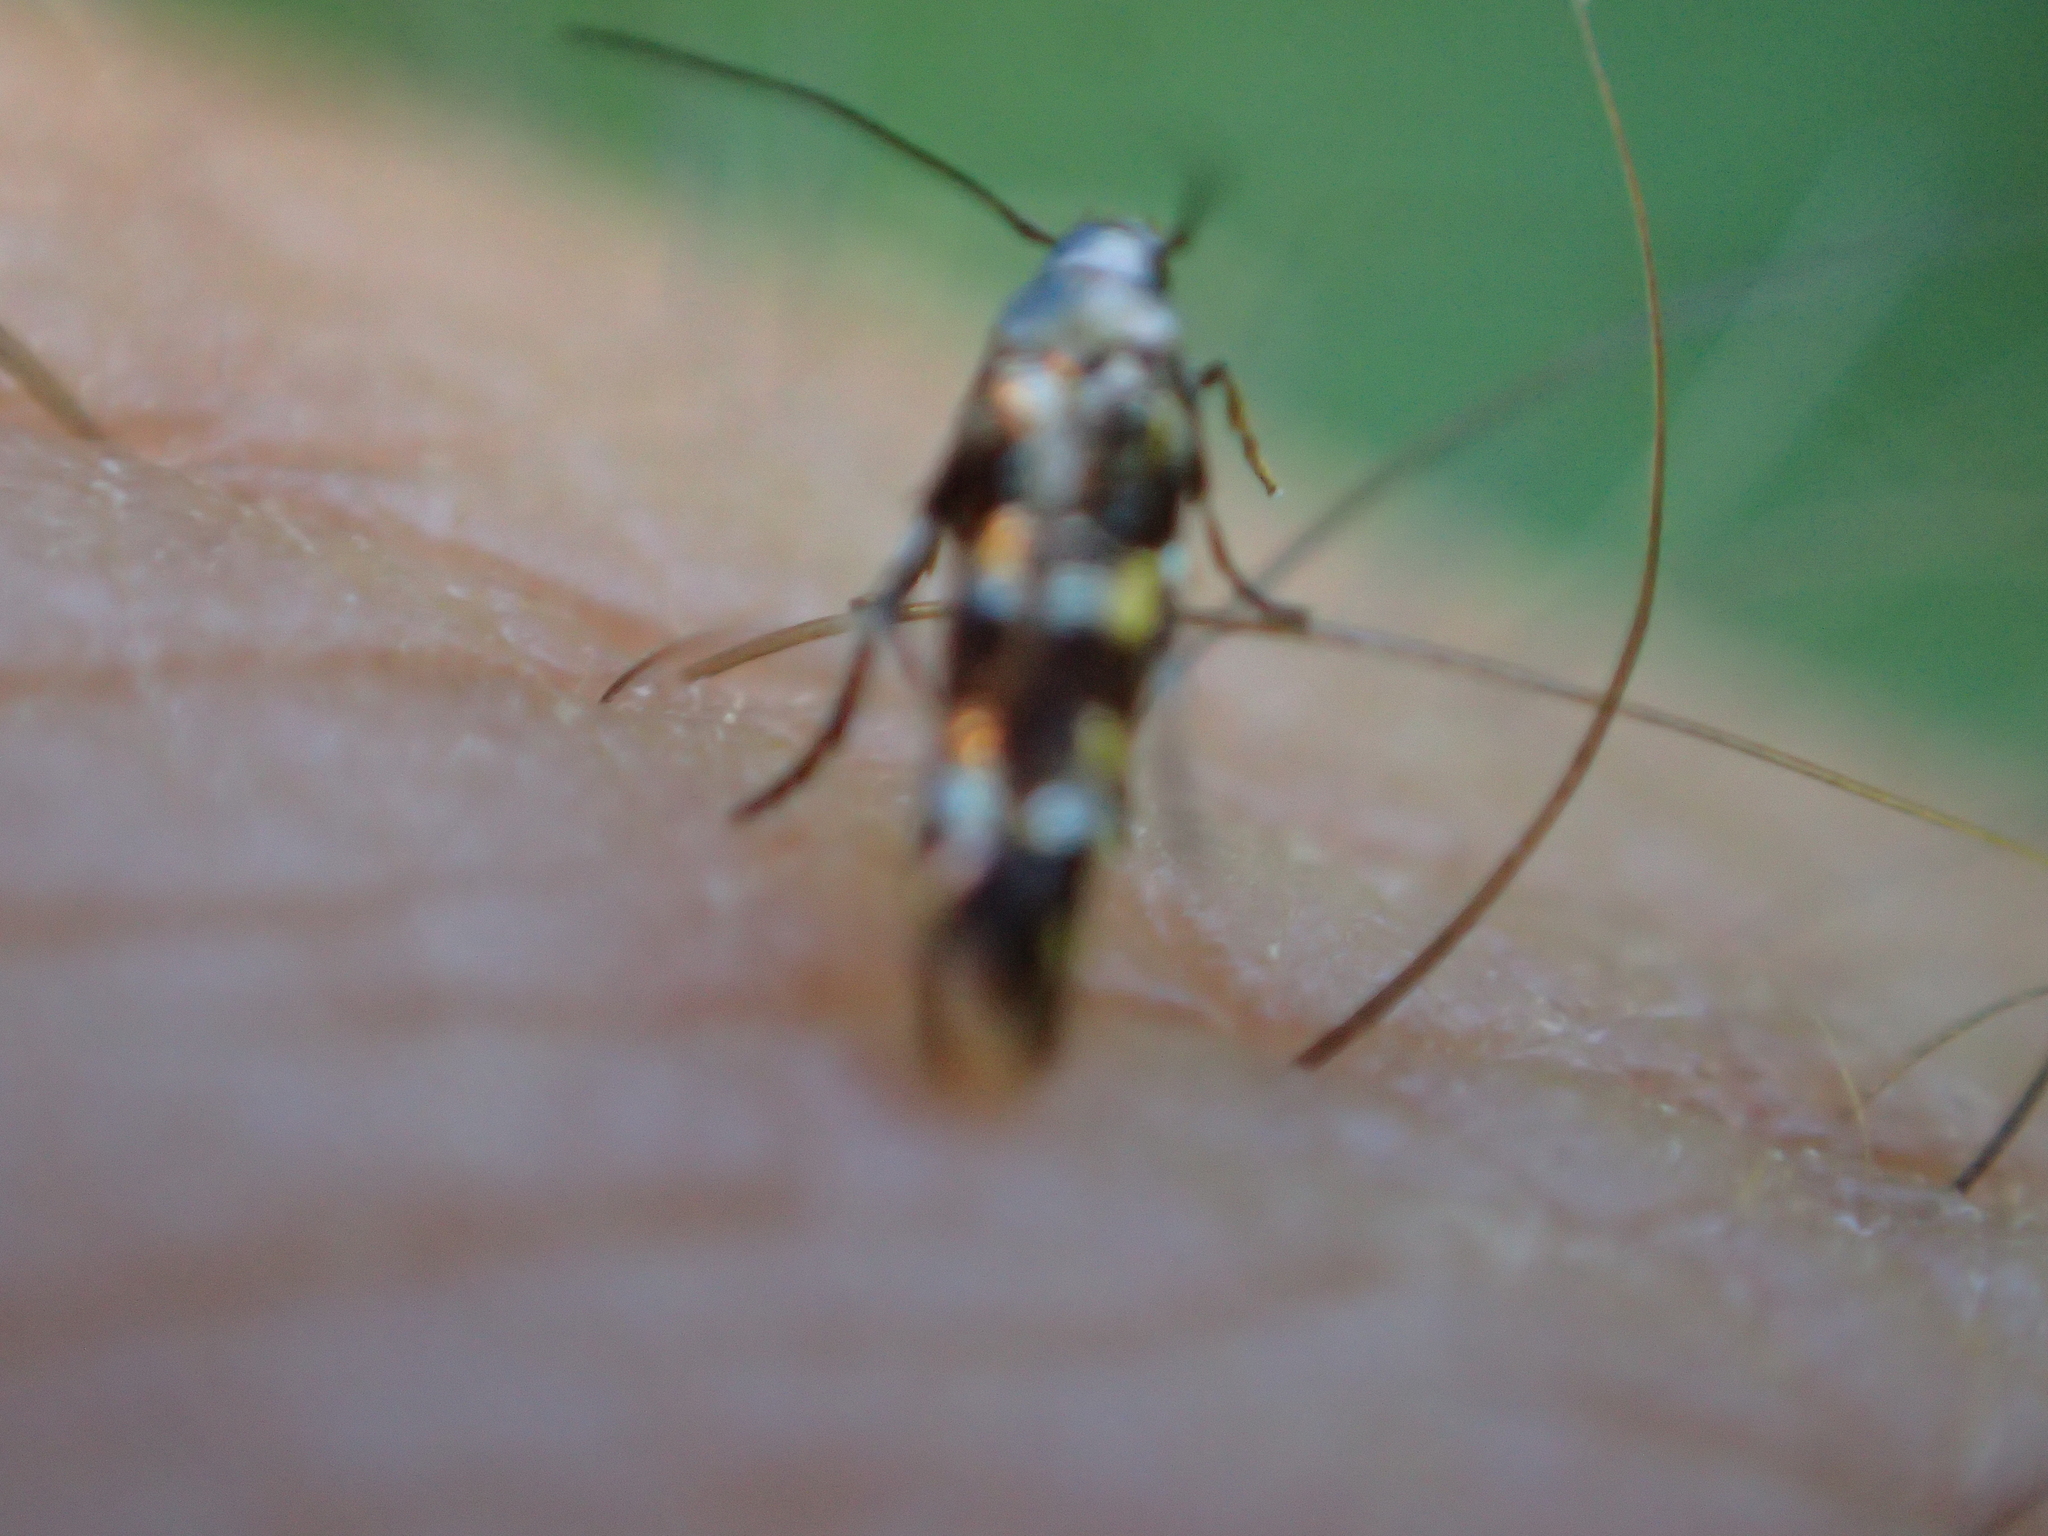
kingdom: Animalia
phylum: Arthropoda
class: Insecta
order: Lepidoptera
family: Momphidae
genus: Zapyrastra
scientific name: Zapyrastra calliphana
